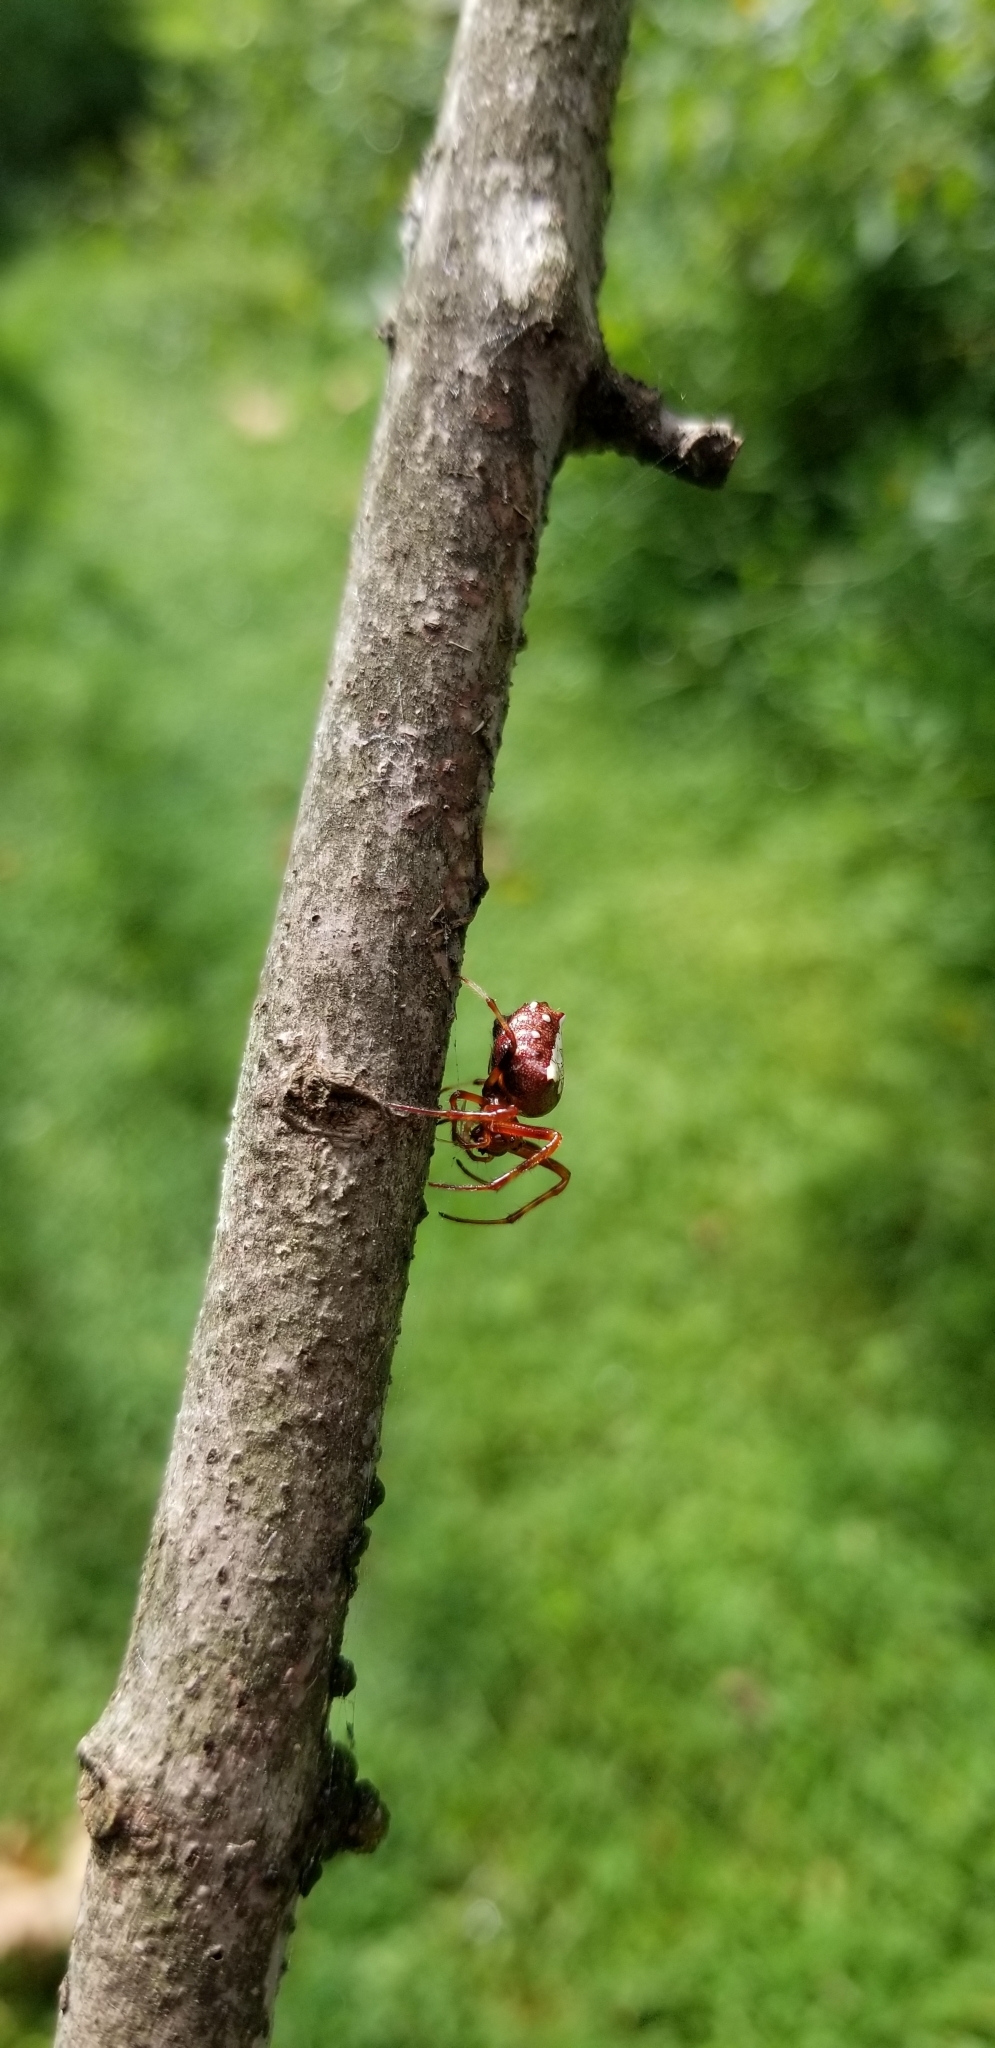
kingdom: Animalia
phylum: Arthropoda
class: Arachnida
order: Araneae
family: Araneidae
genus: Verrucosa
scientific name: Verrucosa arenata
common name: Orb weavers
